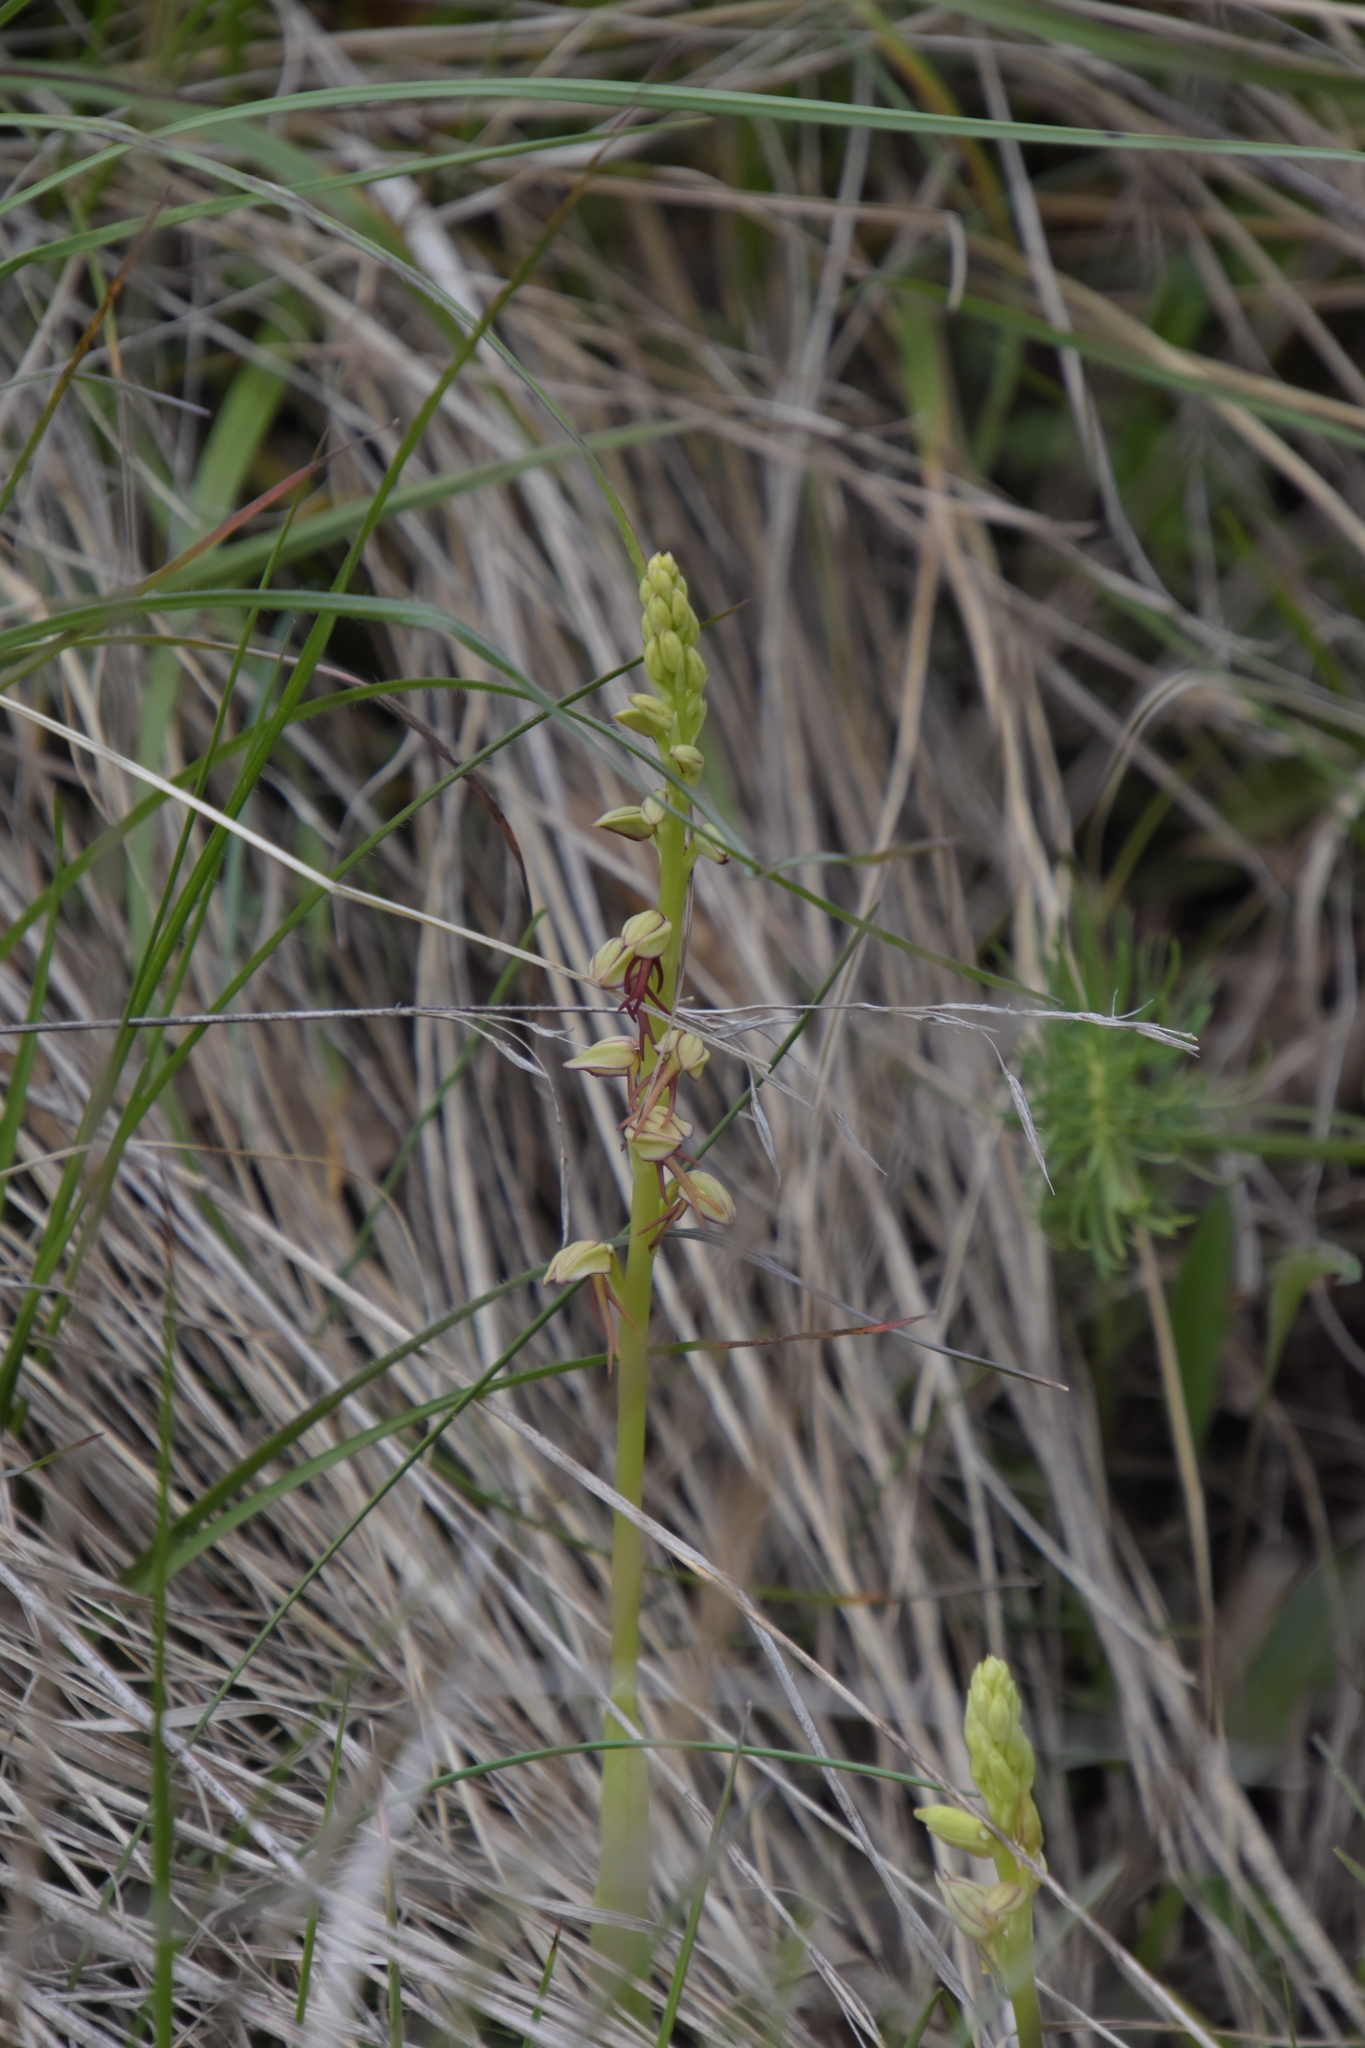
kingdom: Plantae
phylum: Tracheophyta
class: Liliopsida
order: Asparagales
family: Orchidaceae
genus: Orchis
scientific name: Orchis anthropophora
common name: Man orchid
